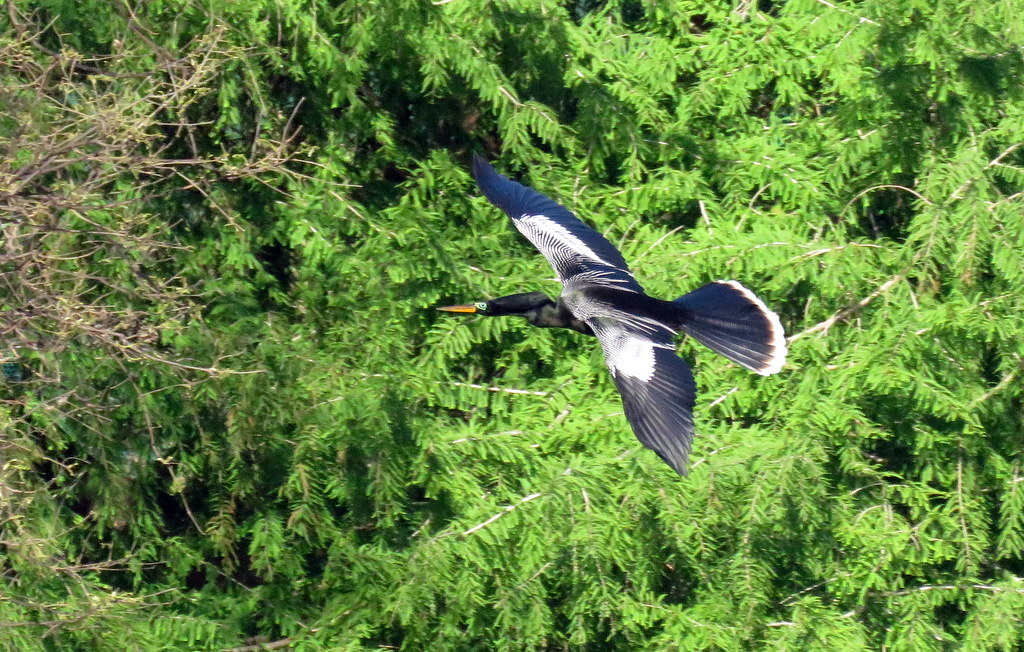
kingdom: Animalia
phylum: Chordata
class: Aves
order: Suliformes
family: Anhingidae
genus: Anhinga
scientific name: Anhinga anhinga
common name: Anhinga
